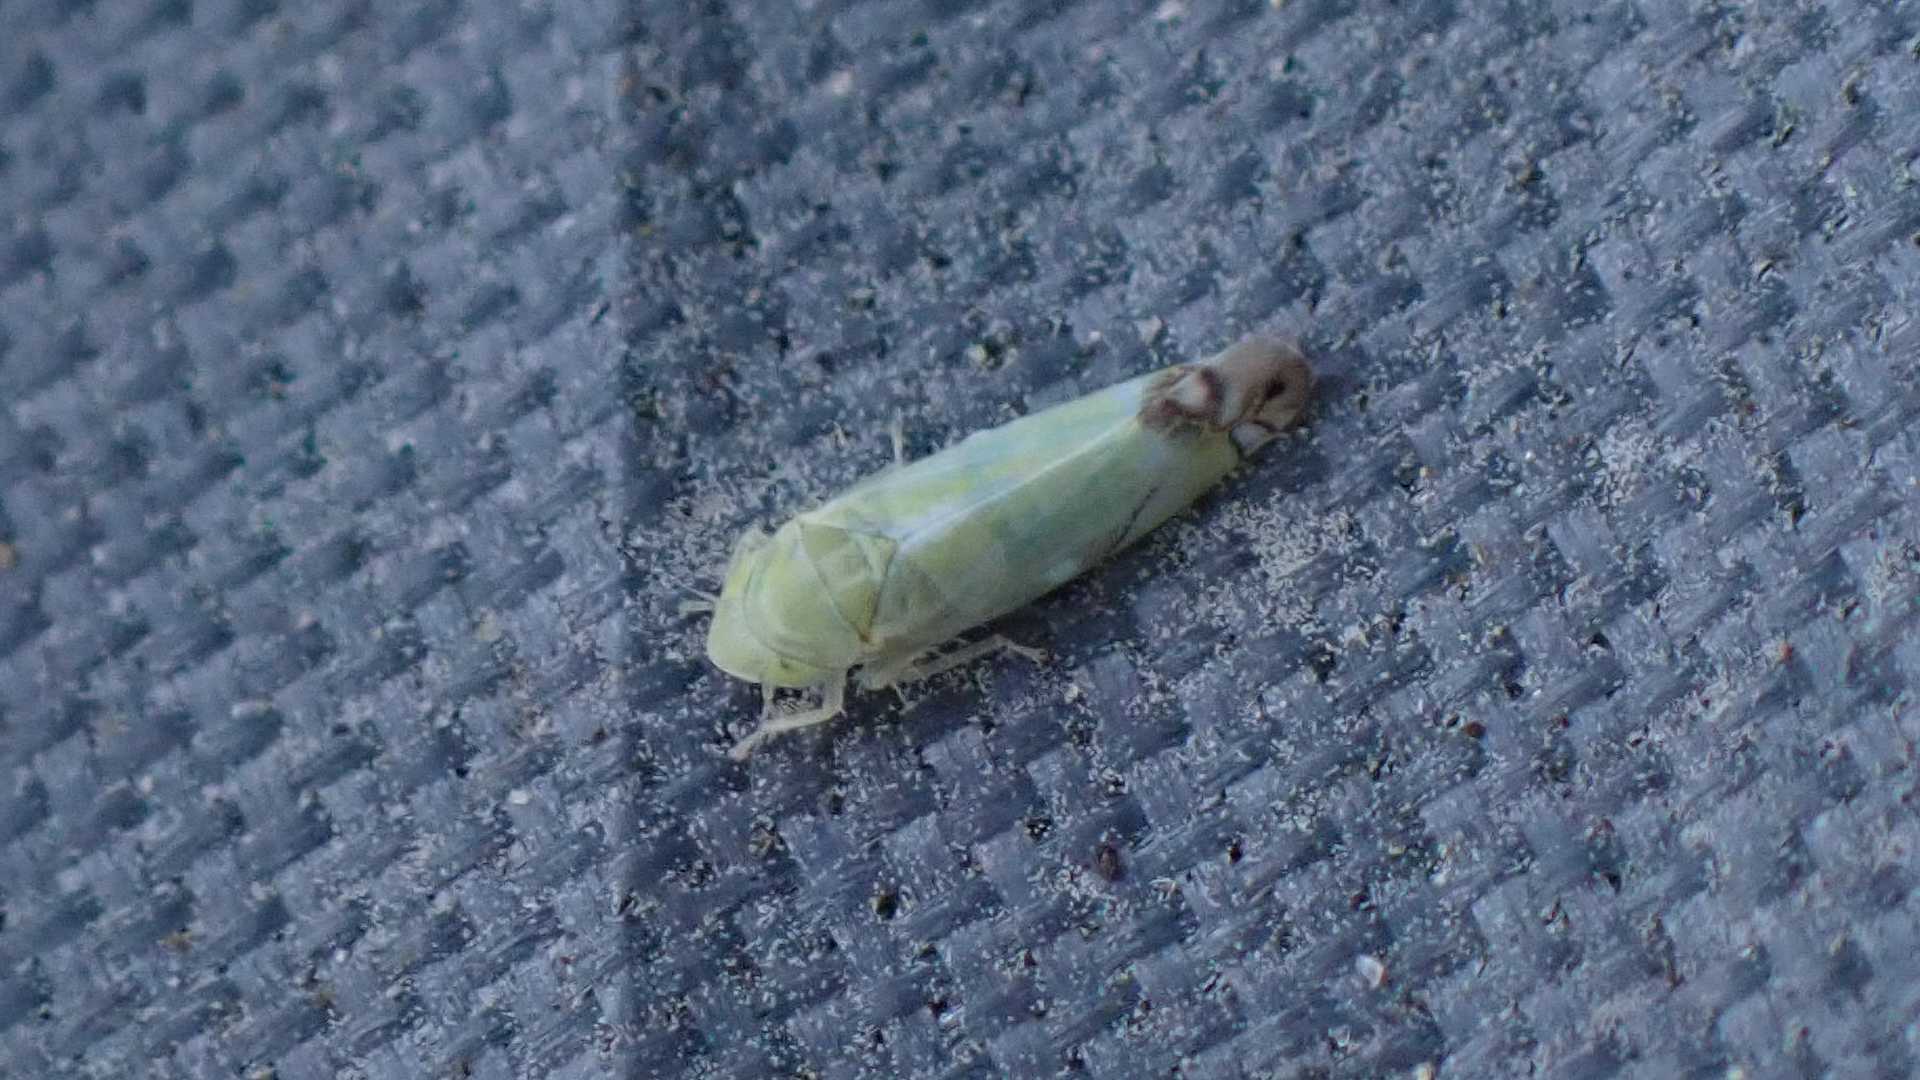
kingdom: Animalia
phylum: Arthropoda
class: Insecta
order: Hemiptera
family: Cicadellidae
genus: Zyginella
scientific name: Zyginella pulchra
